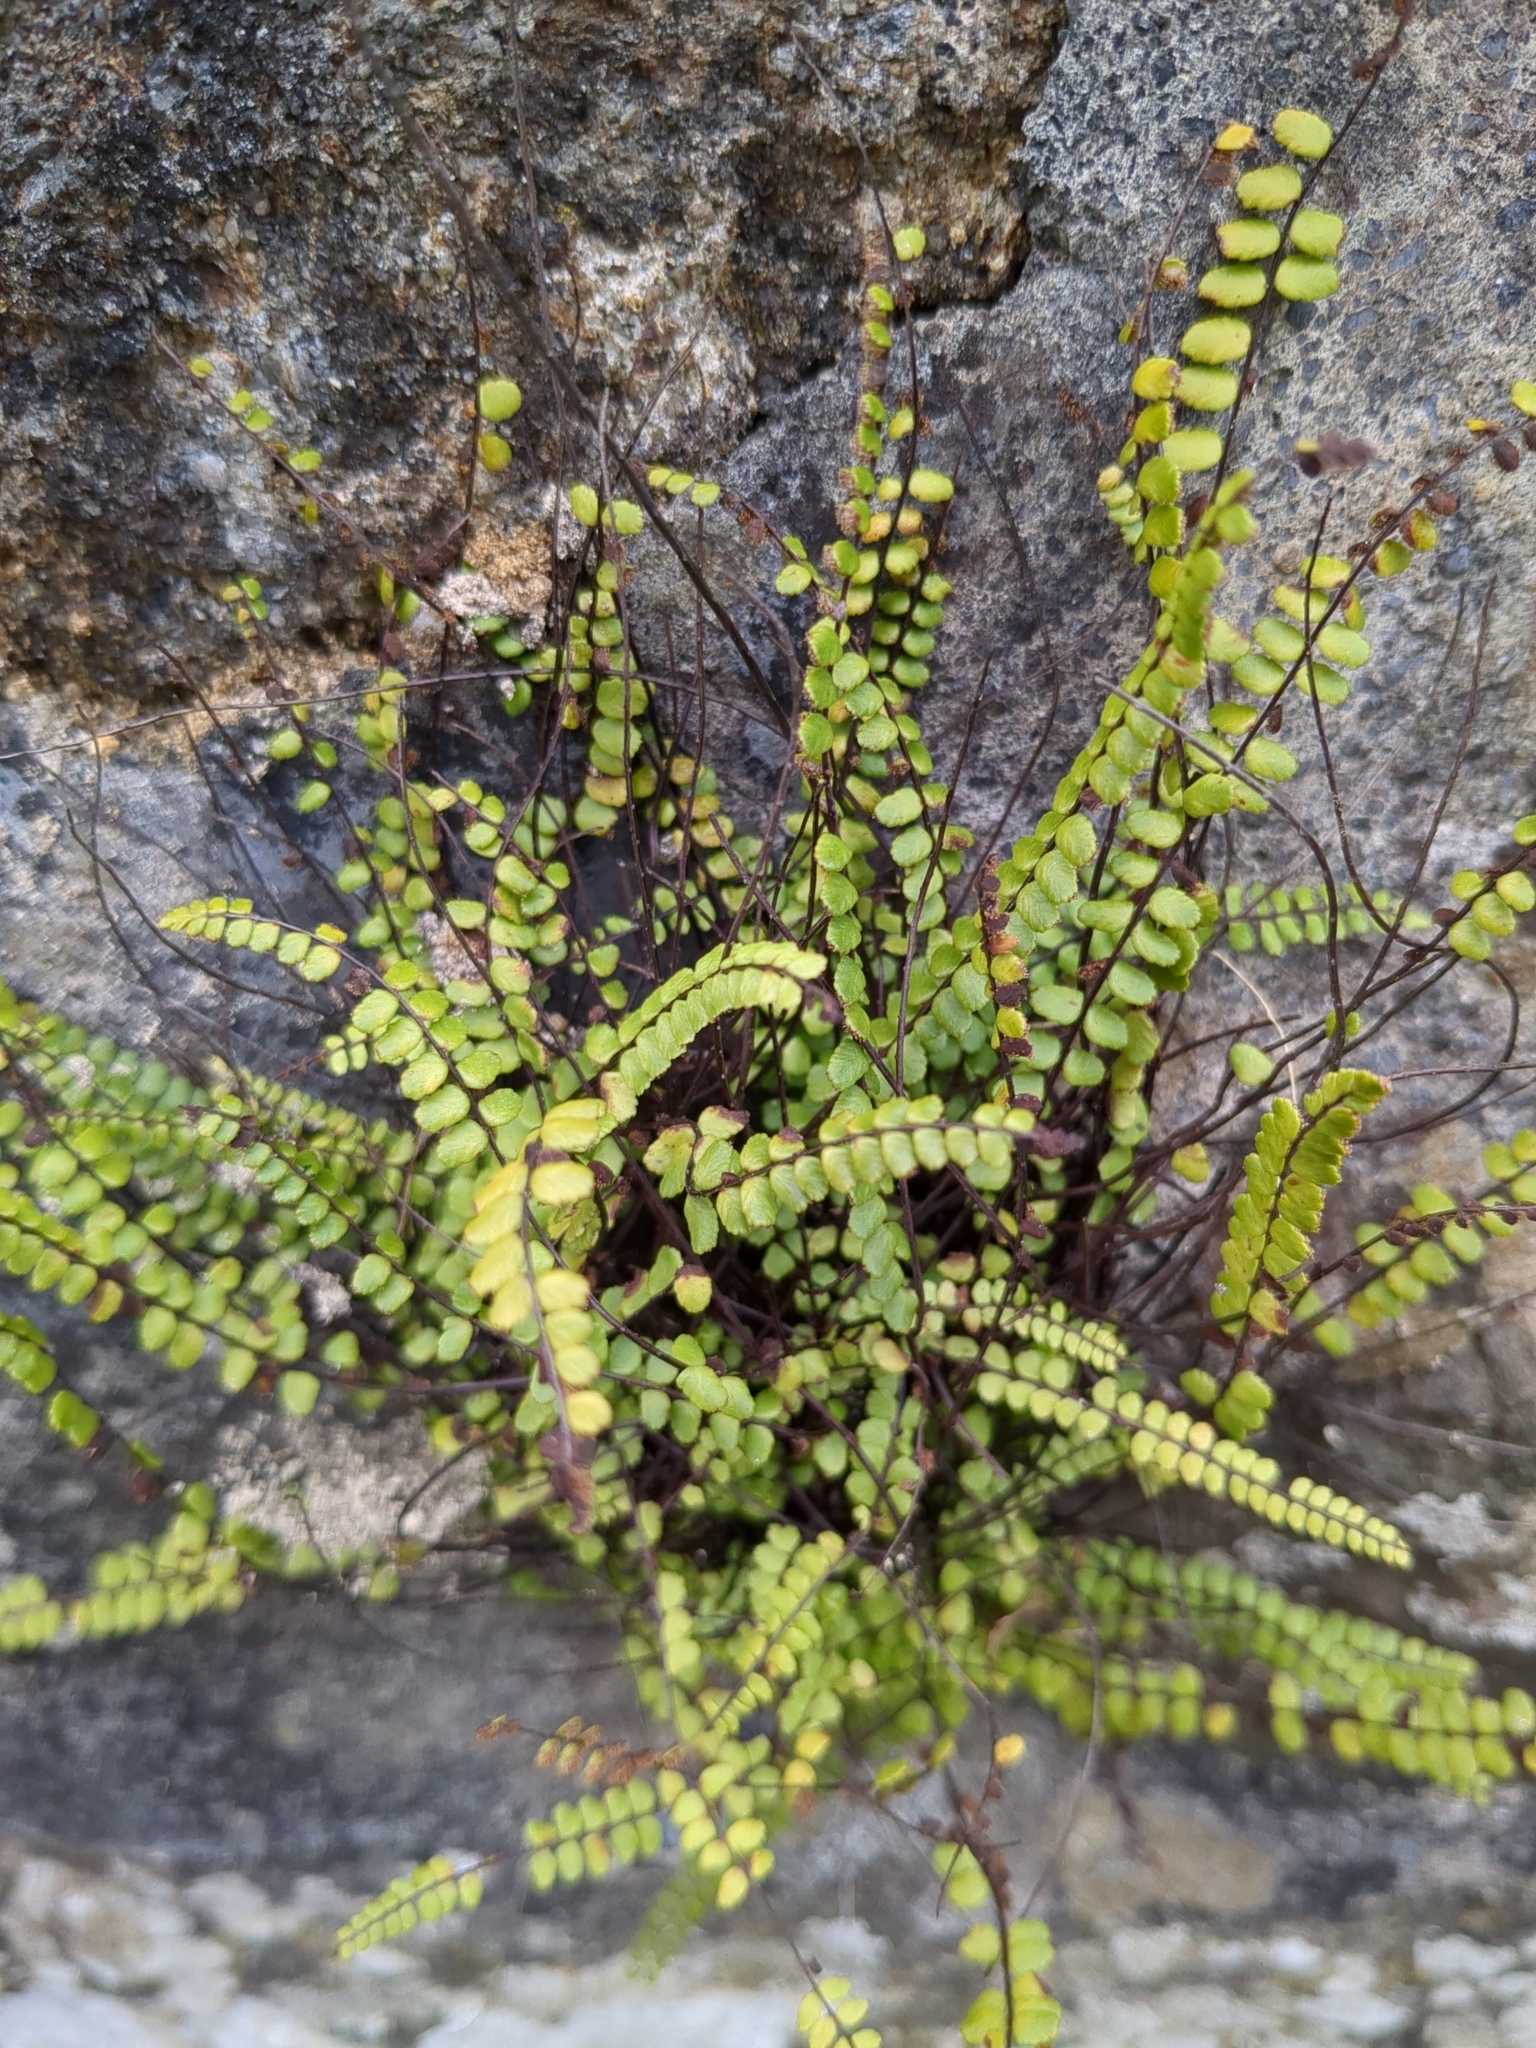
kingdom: Plantae
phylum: Tracheophyta
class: Polypodiopsida
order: Polypodiales
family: Aspleniaceae
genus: Asplenium
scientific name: Asplenium trichomanes
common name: Maidenhair spleenwort
